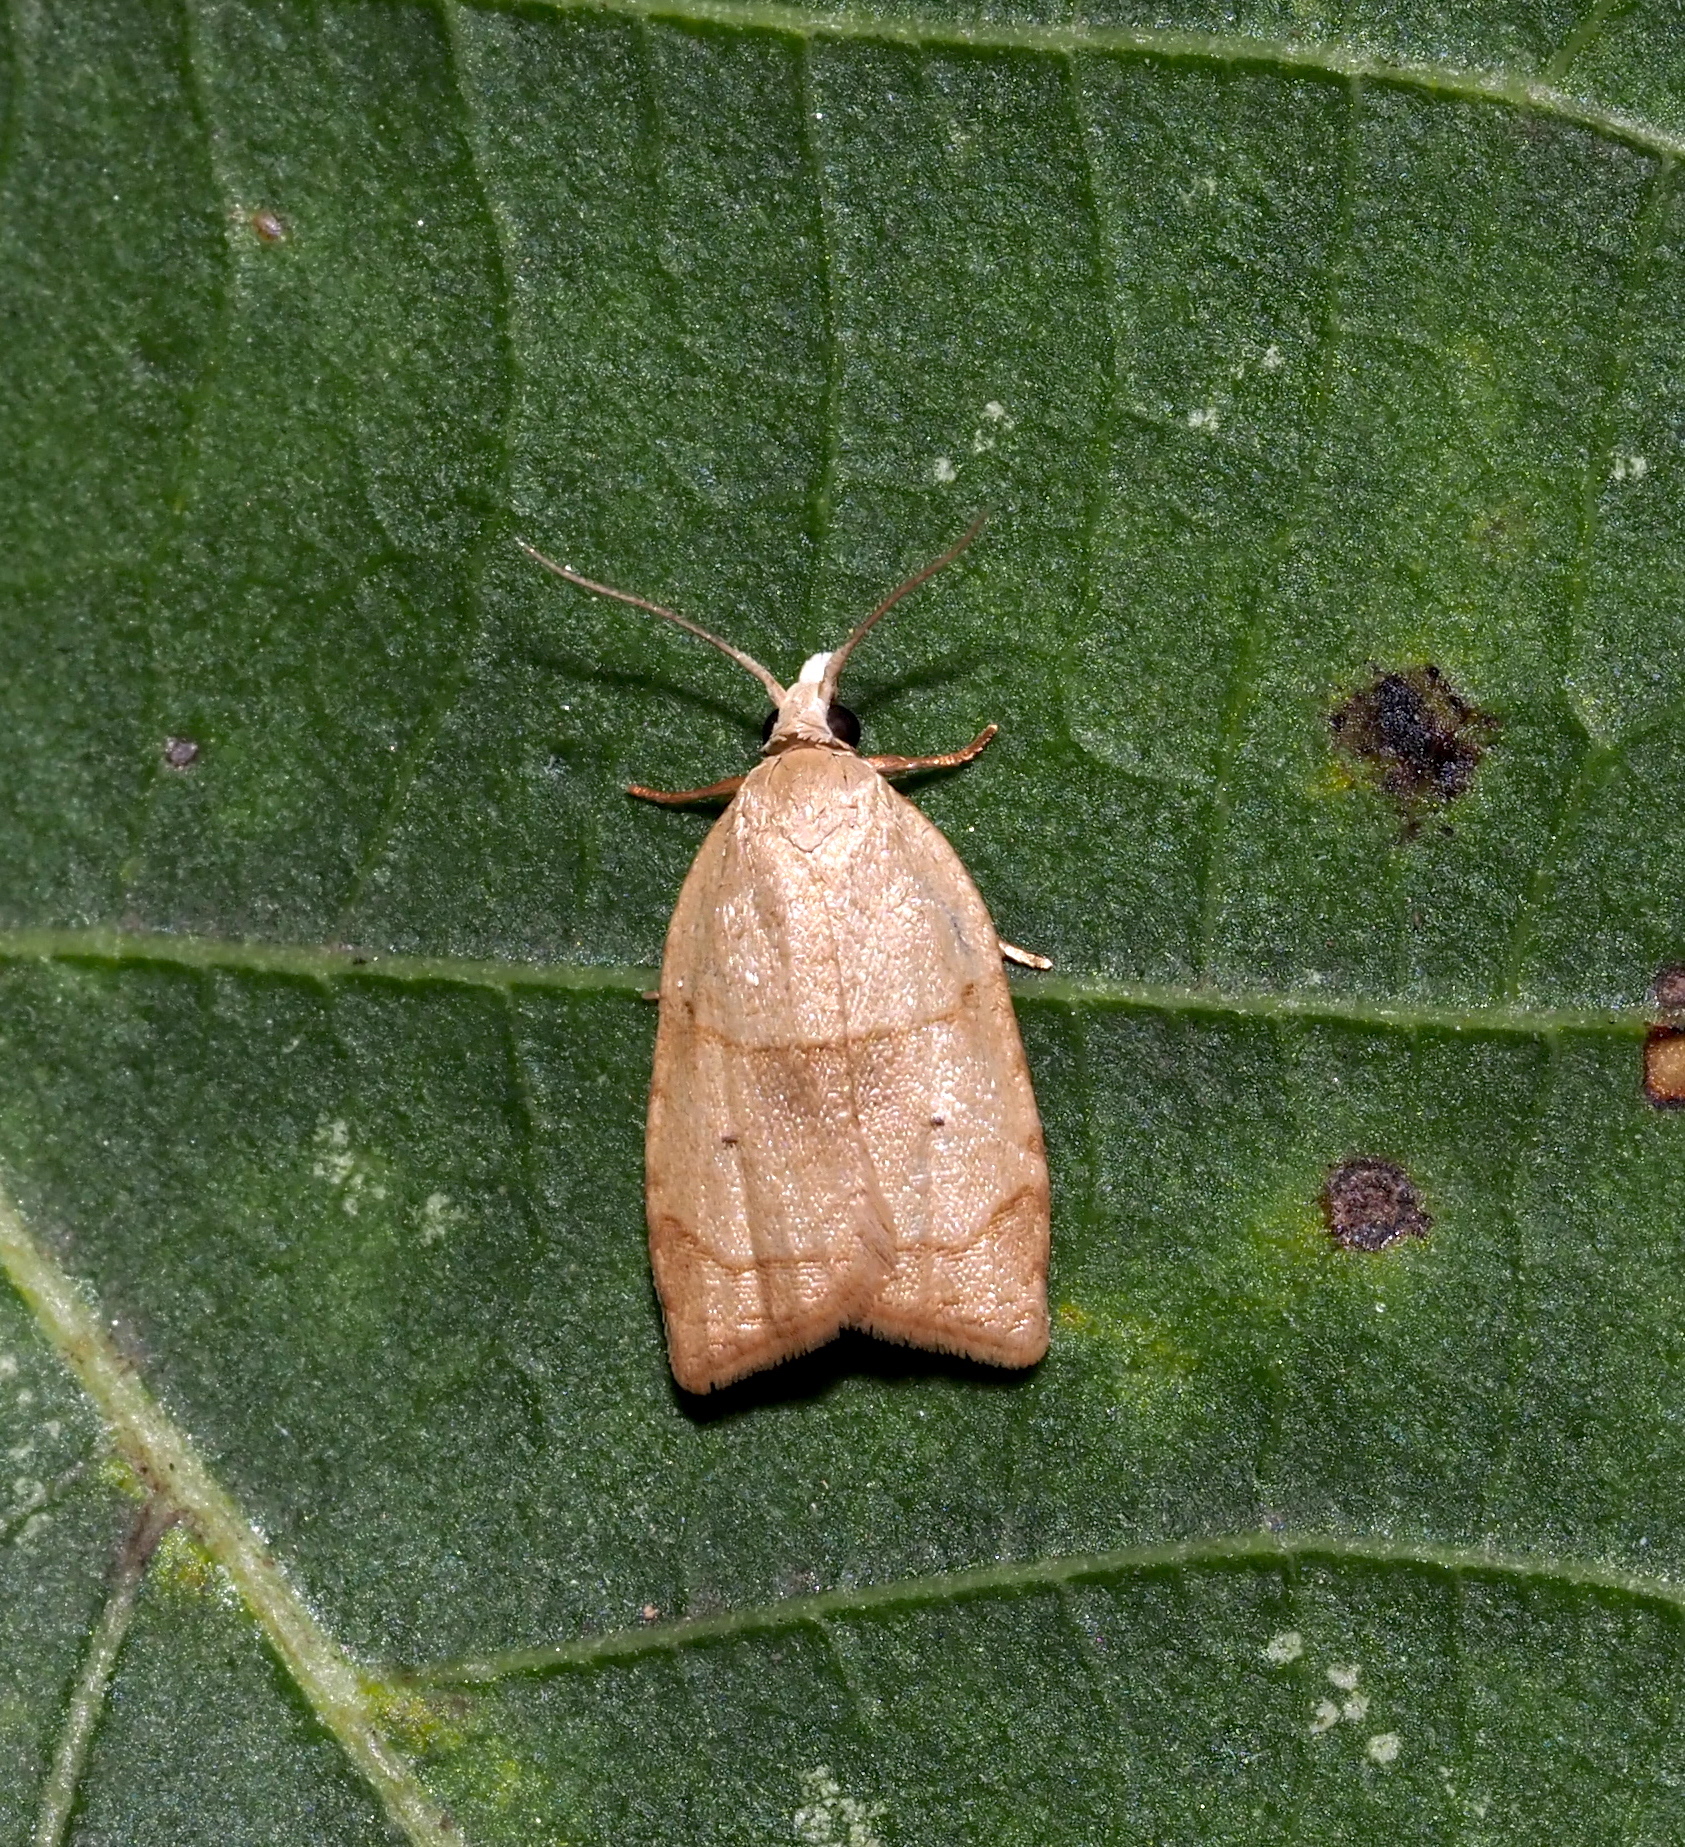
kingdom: Animalia
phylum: Arthropoda
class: Insecta
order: Lepidoptera
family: Tortricidae
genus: Coelostathma
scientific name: Coelostathma discopunctana
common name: Batman moth
